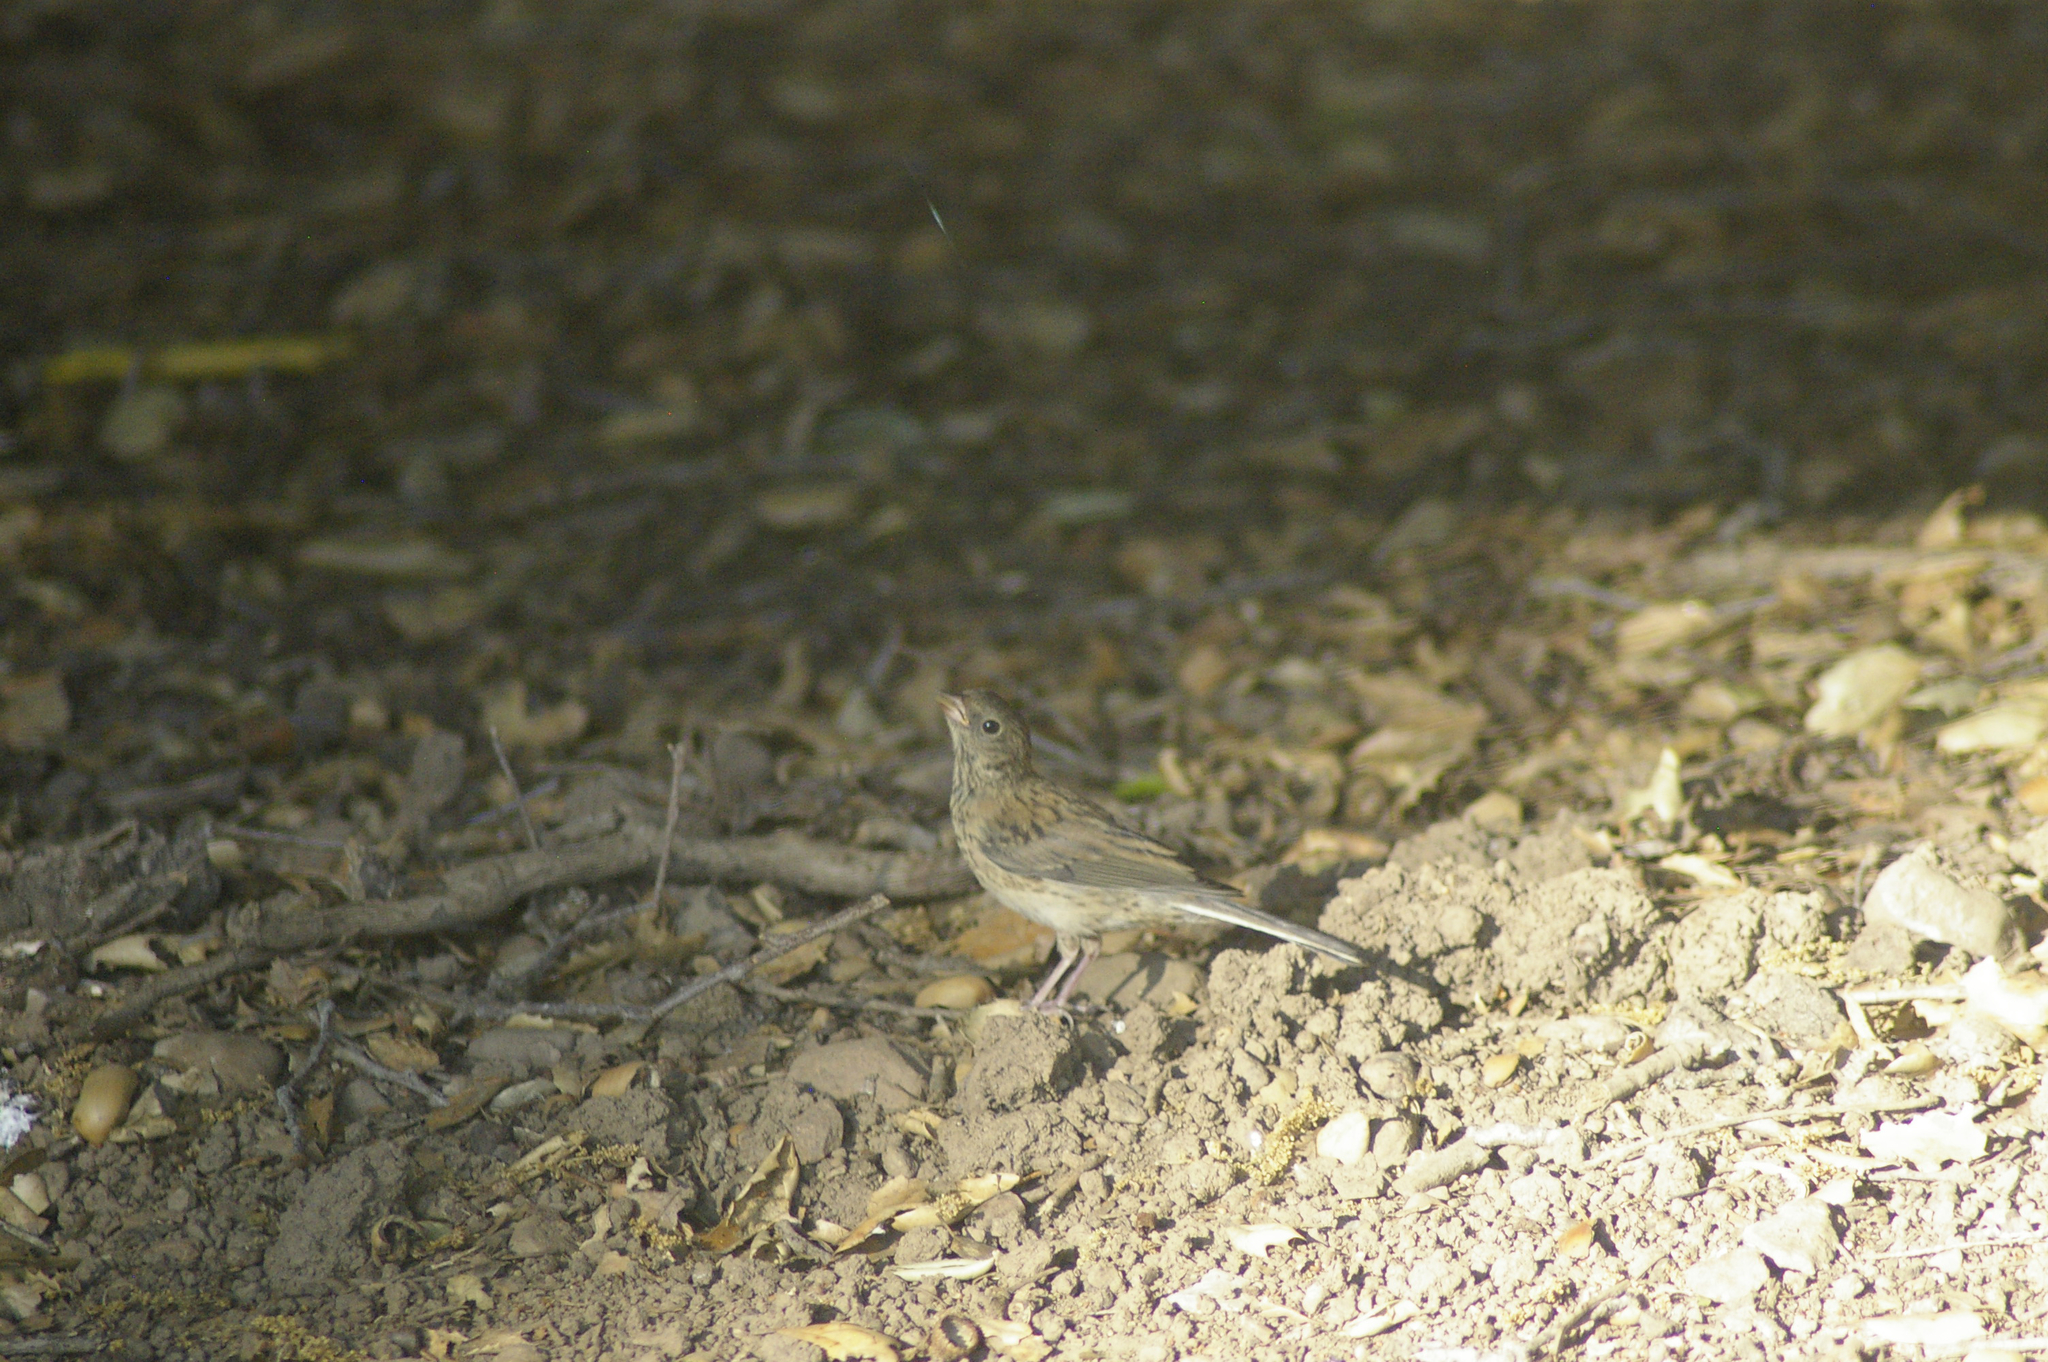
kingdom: Animalia
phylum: Chordata
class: Aves
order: Passeriformes
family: Passerellidae
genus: Junco
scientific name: Junco hyemalis
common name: Dark-eyed junco
